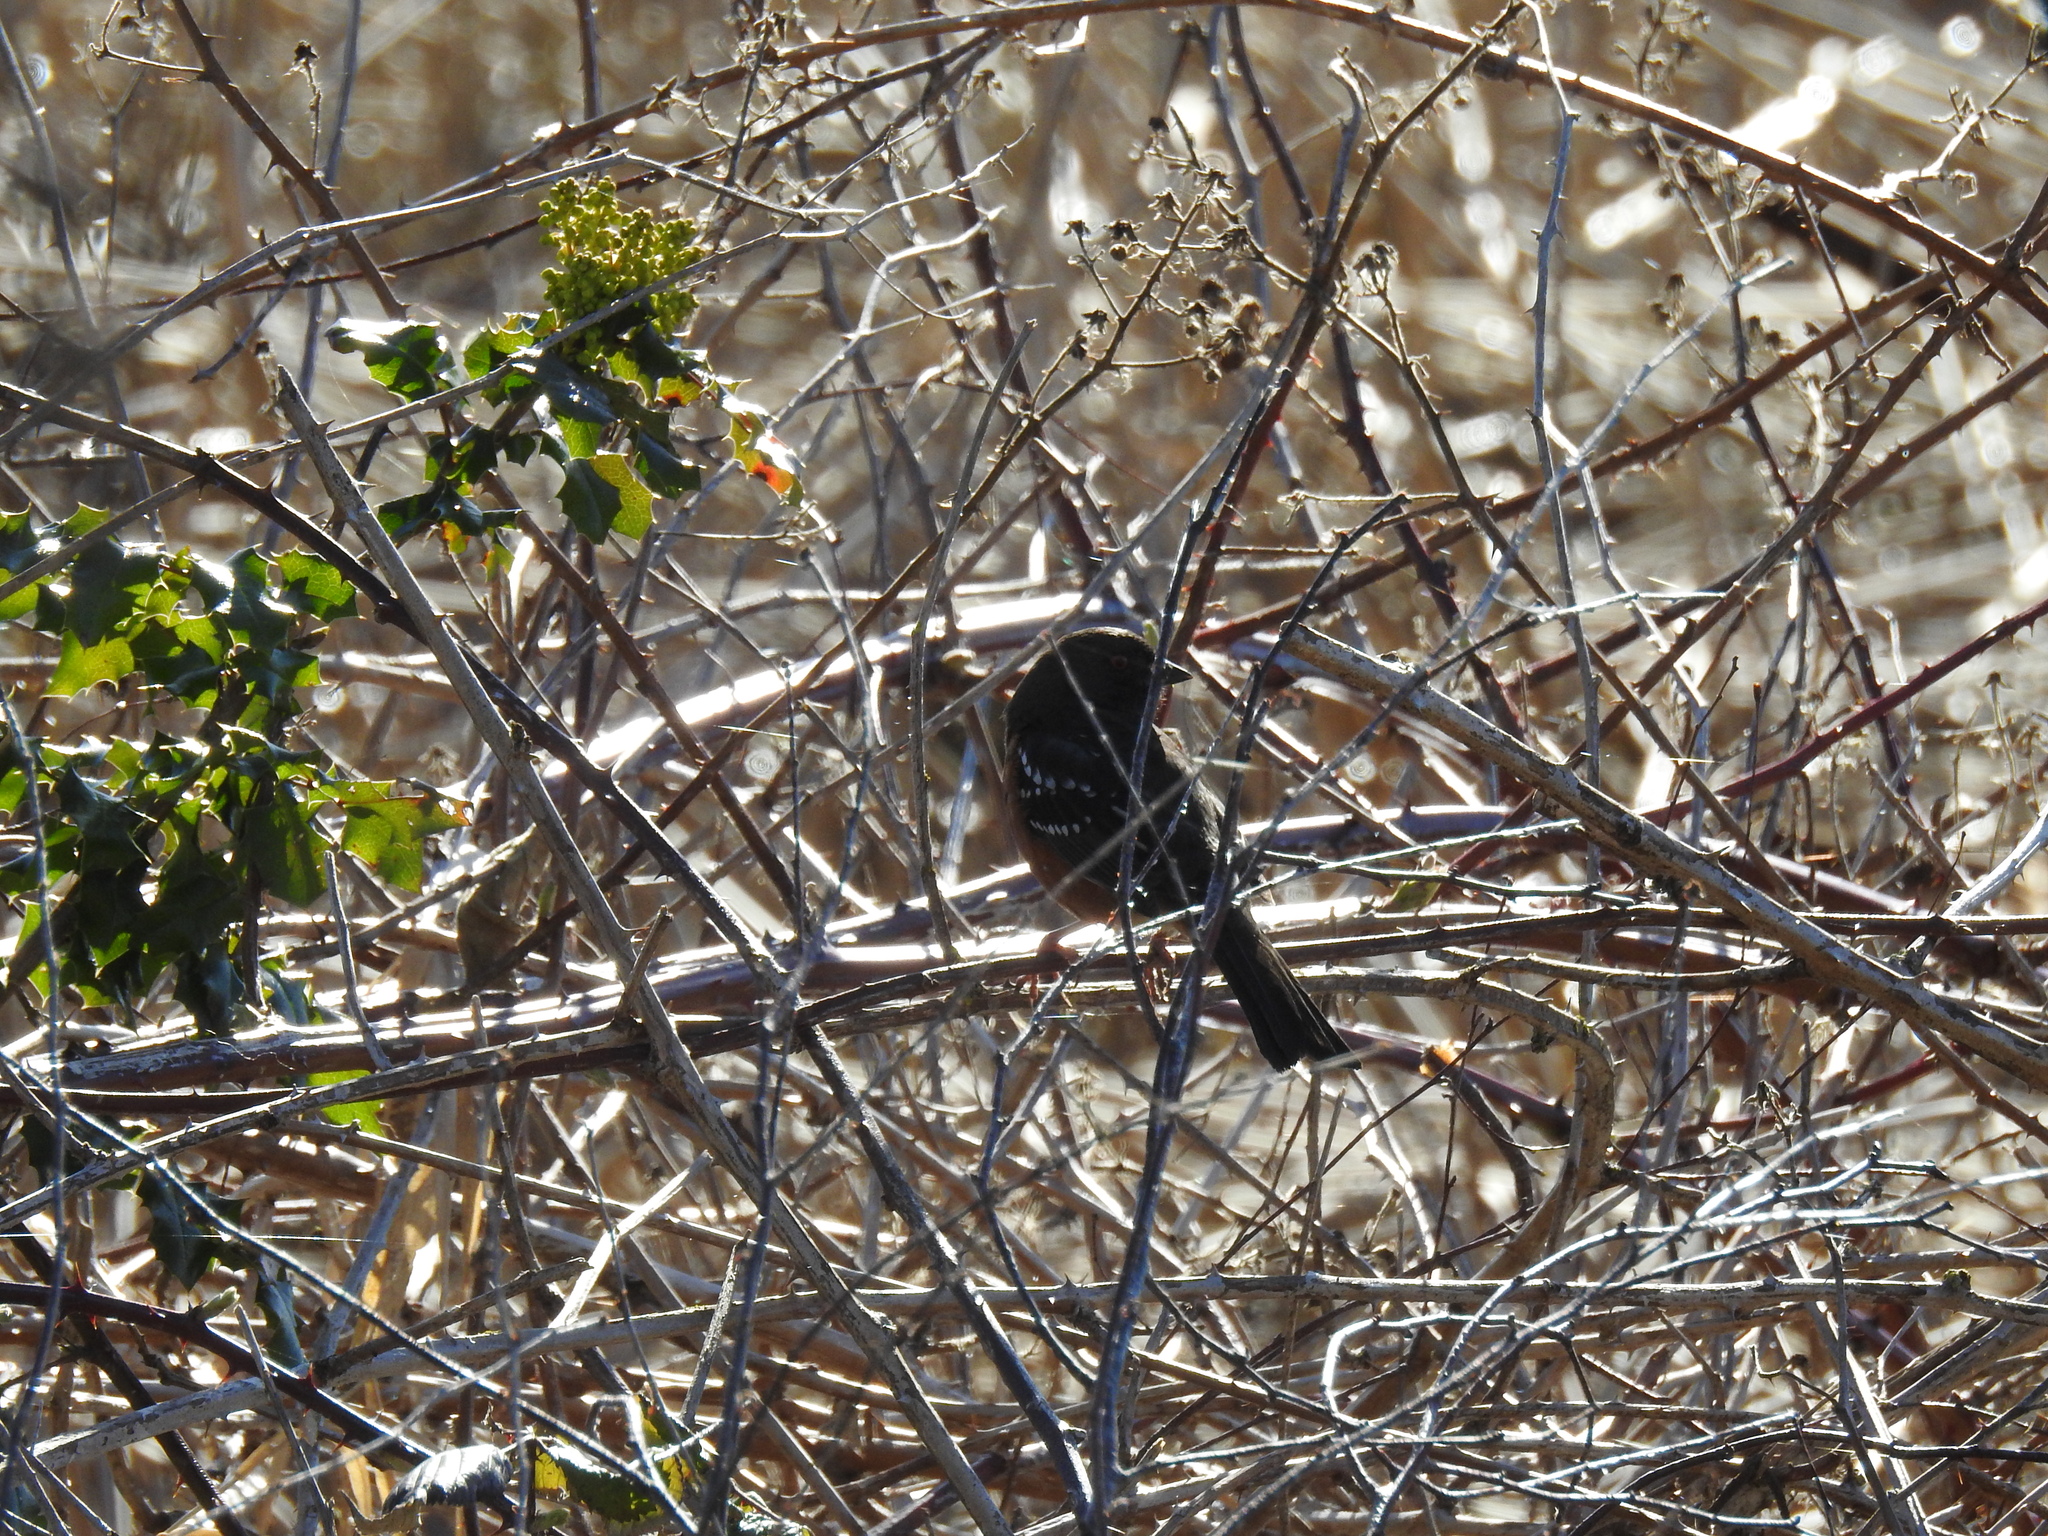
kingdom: Animalia
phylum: Chordata
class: Aves
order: Passeriformes
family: Passerellidae
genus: Pipilo
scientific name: Pipilo maculatus
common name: Spotted towhee
